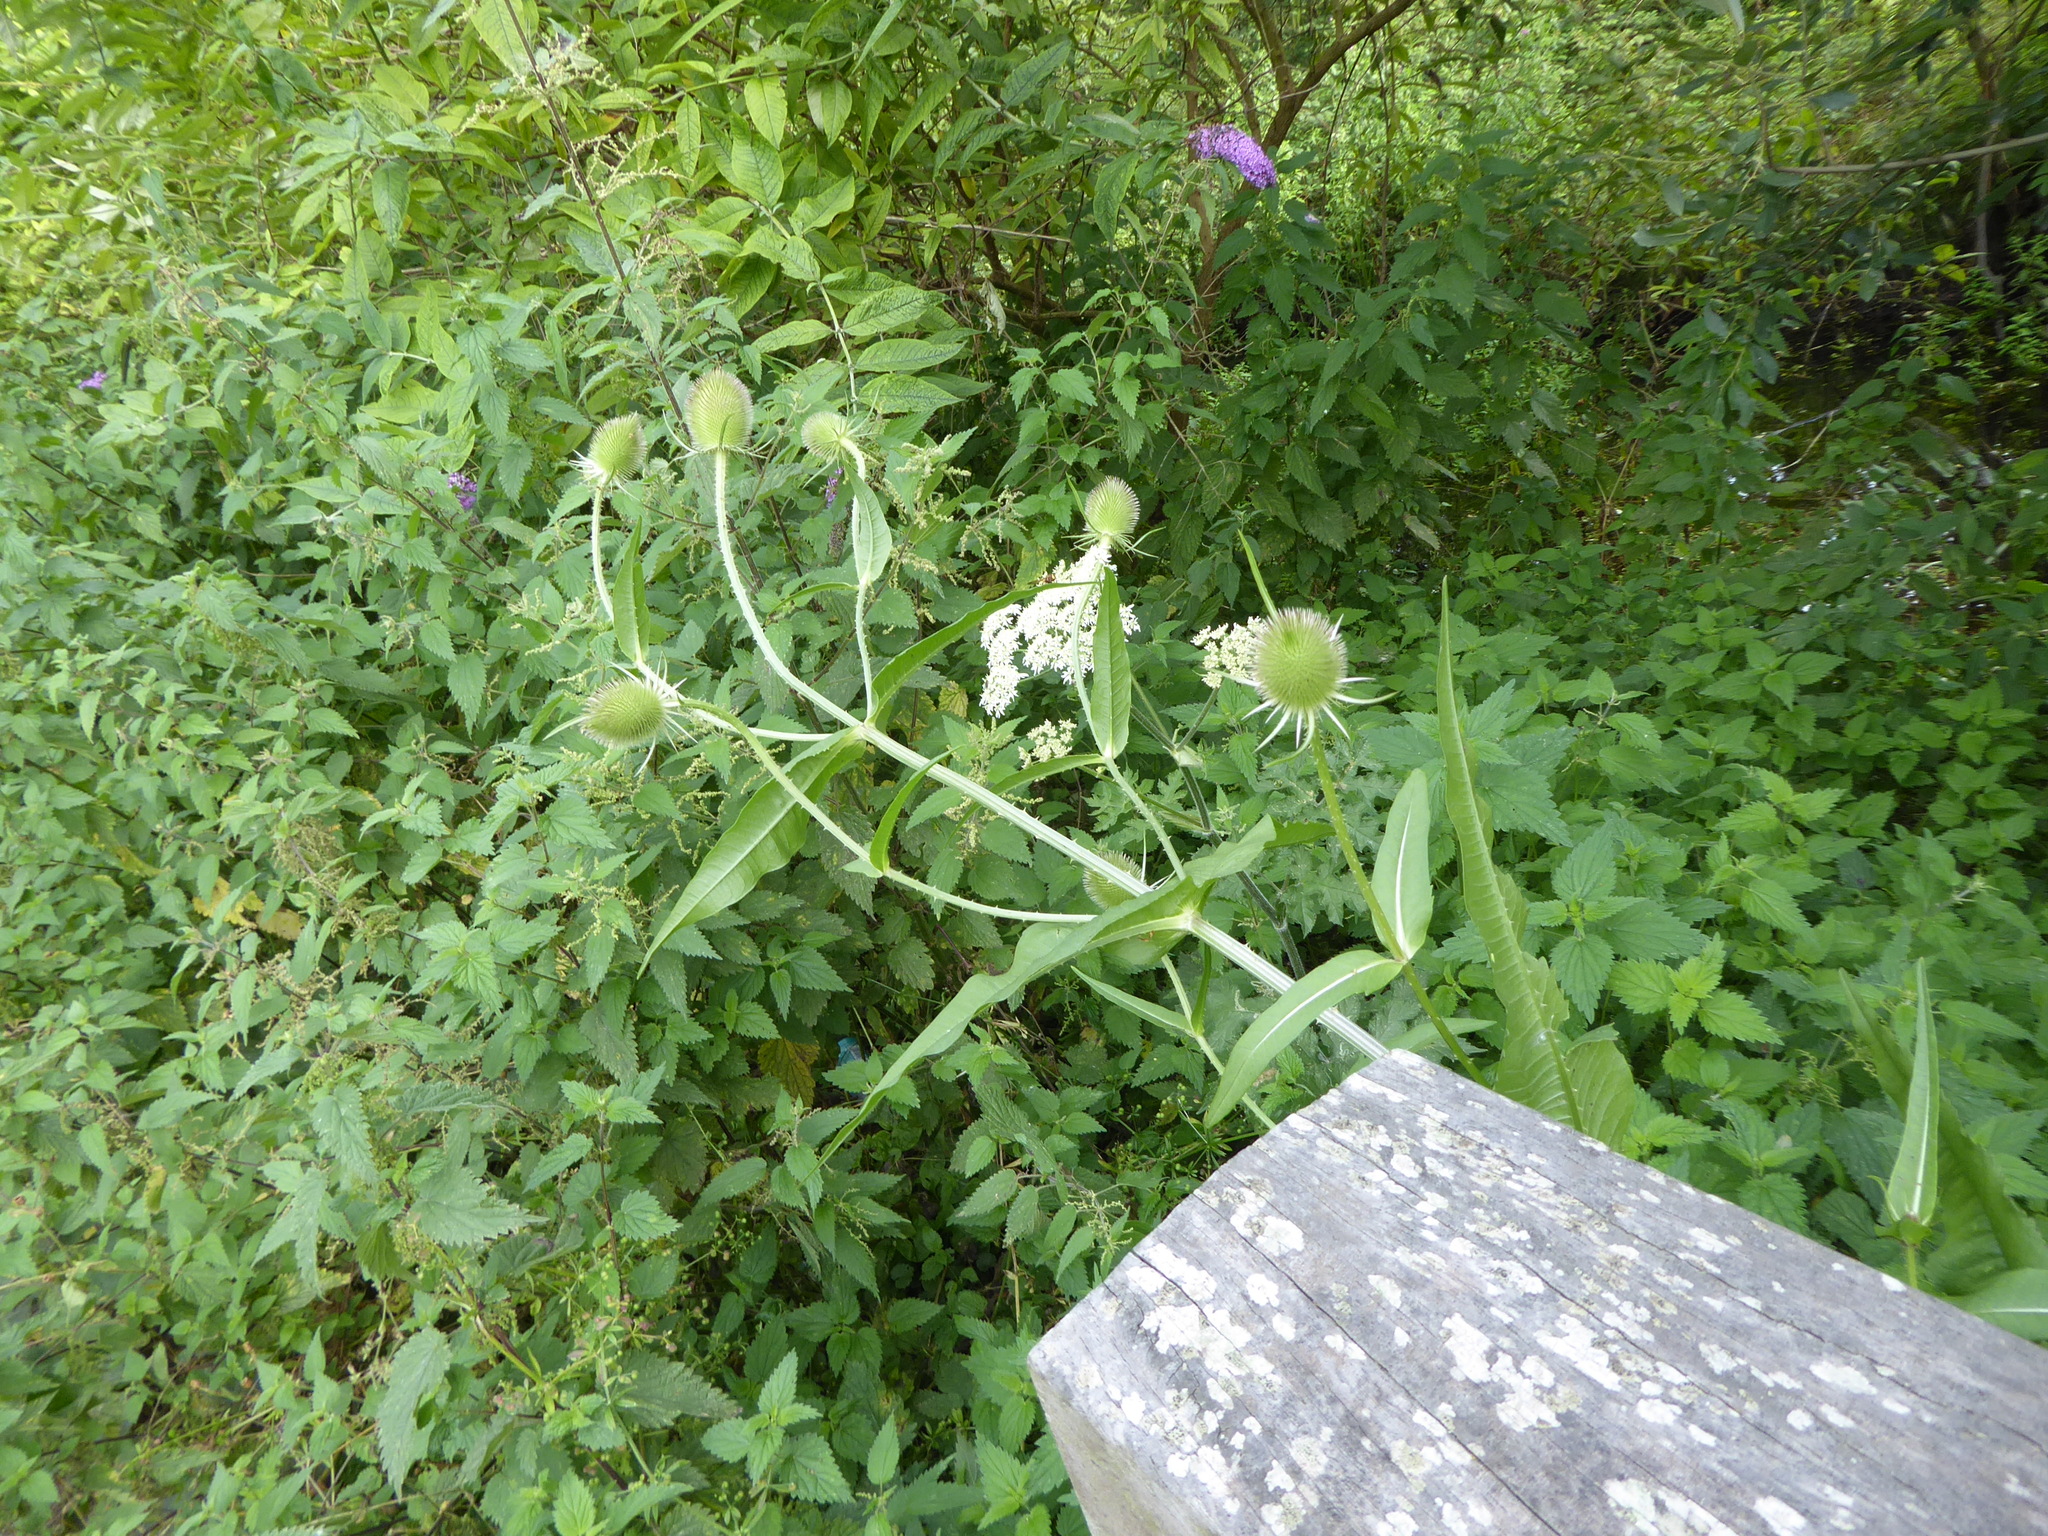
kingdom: Plantae
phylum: Tracheophyta
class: Magnoliopsida
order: Dipsacales
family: Caprifoliaceae
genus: Dipsacus
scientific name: Dipsacus fullonum
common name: Teasel
